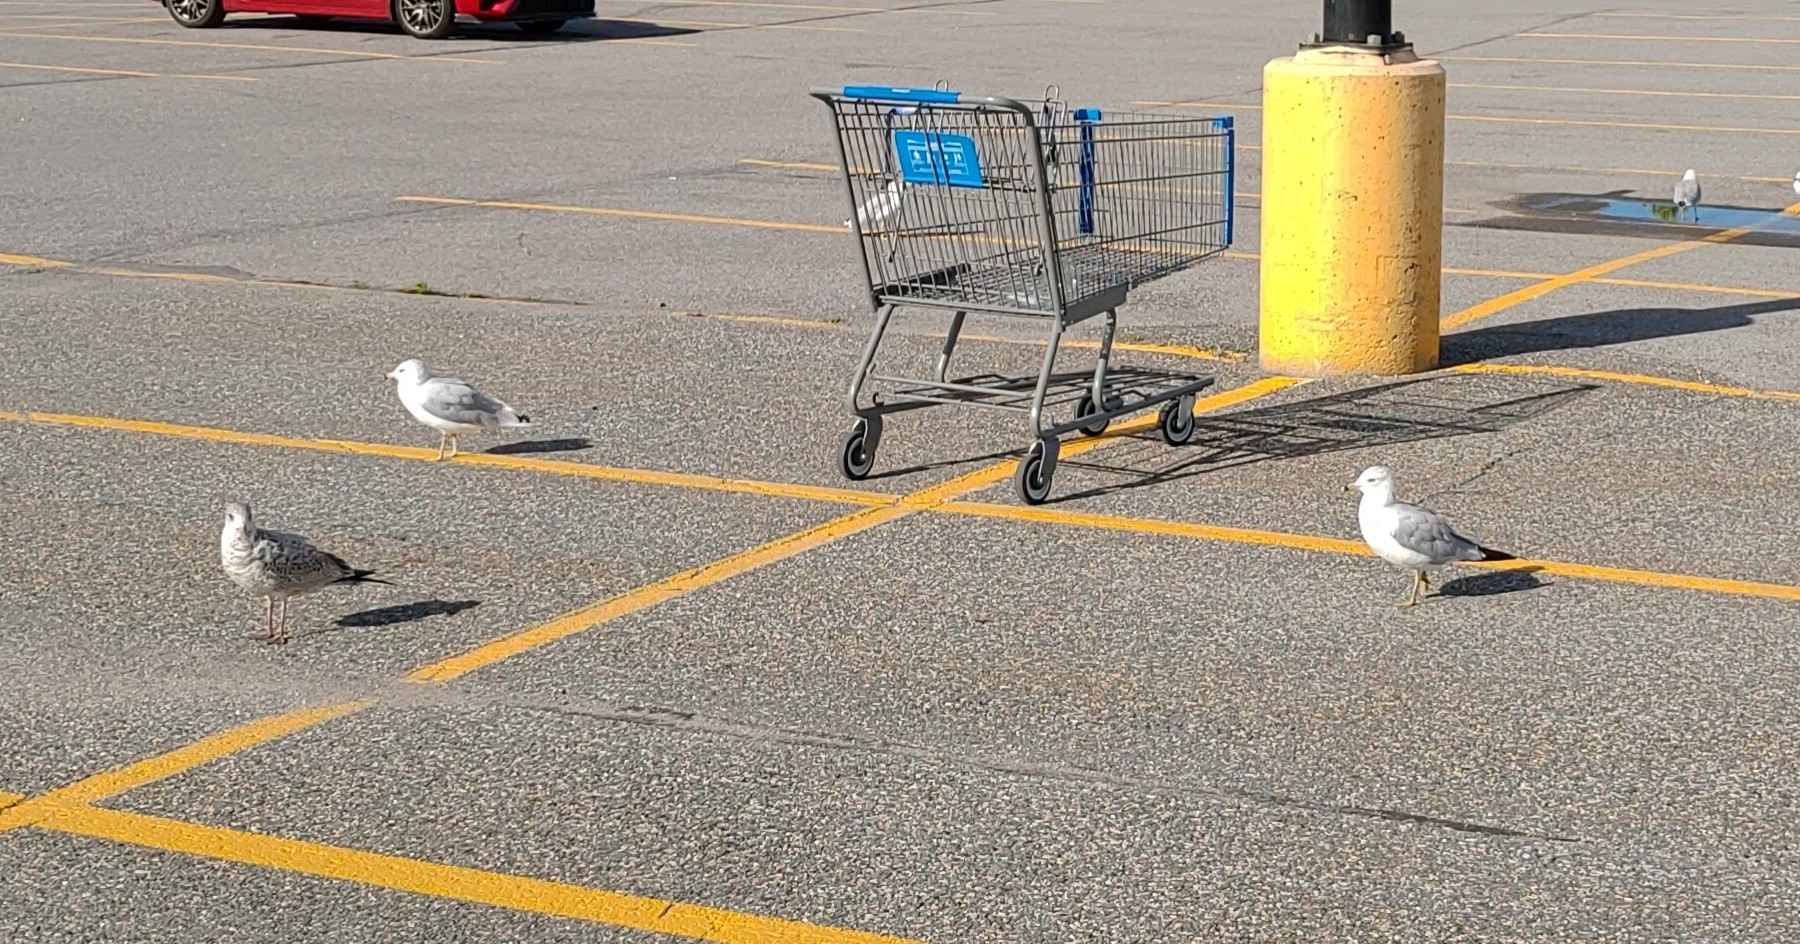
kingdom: Animalia
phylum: Chordata
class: Aves
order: Charadriiformes
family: Laridae
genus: Larus
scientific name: Larus delawarensis
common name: Ring-billed gull
